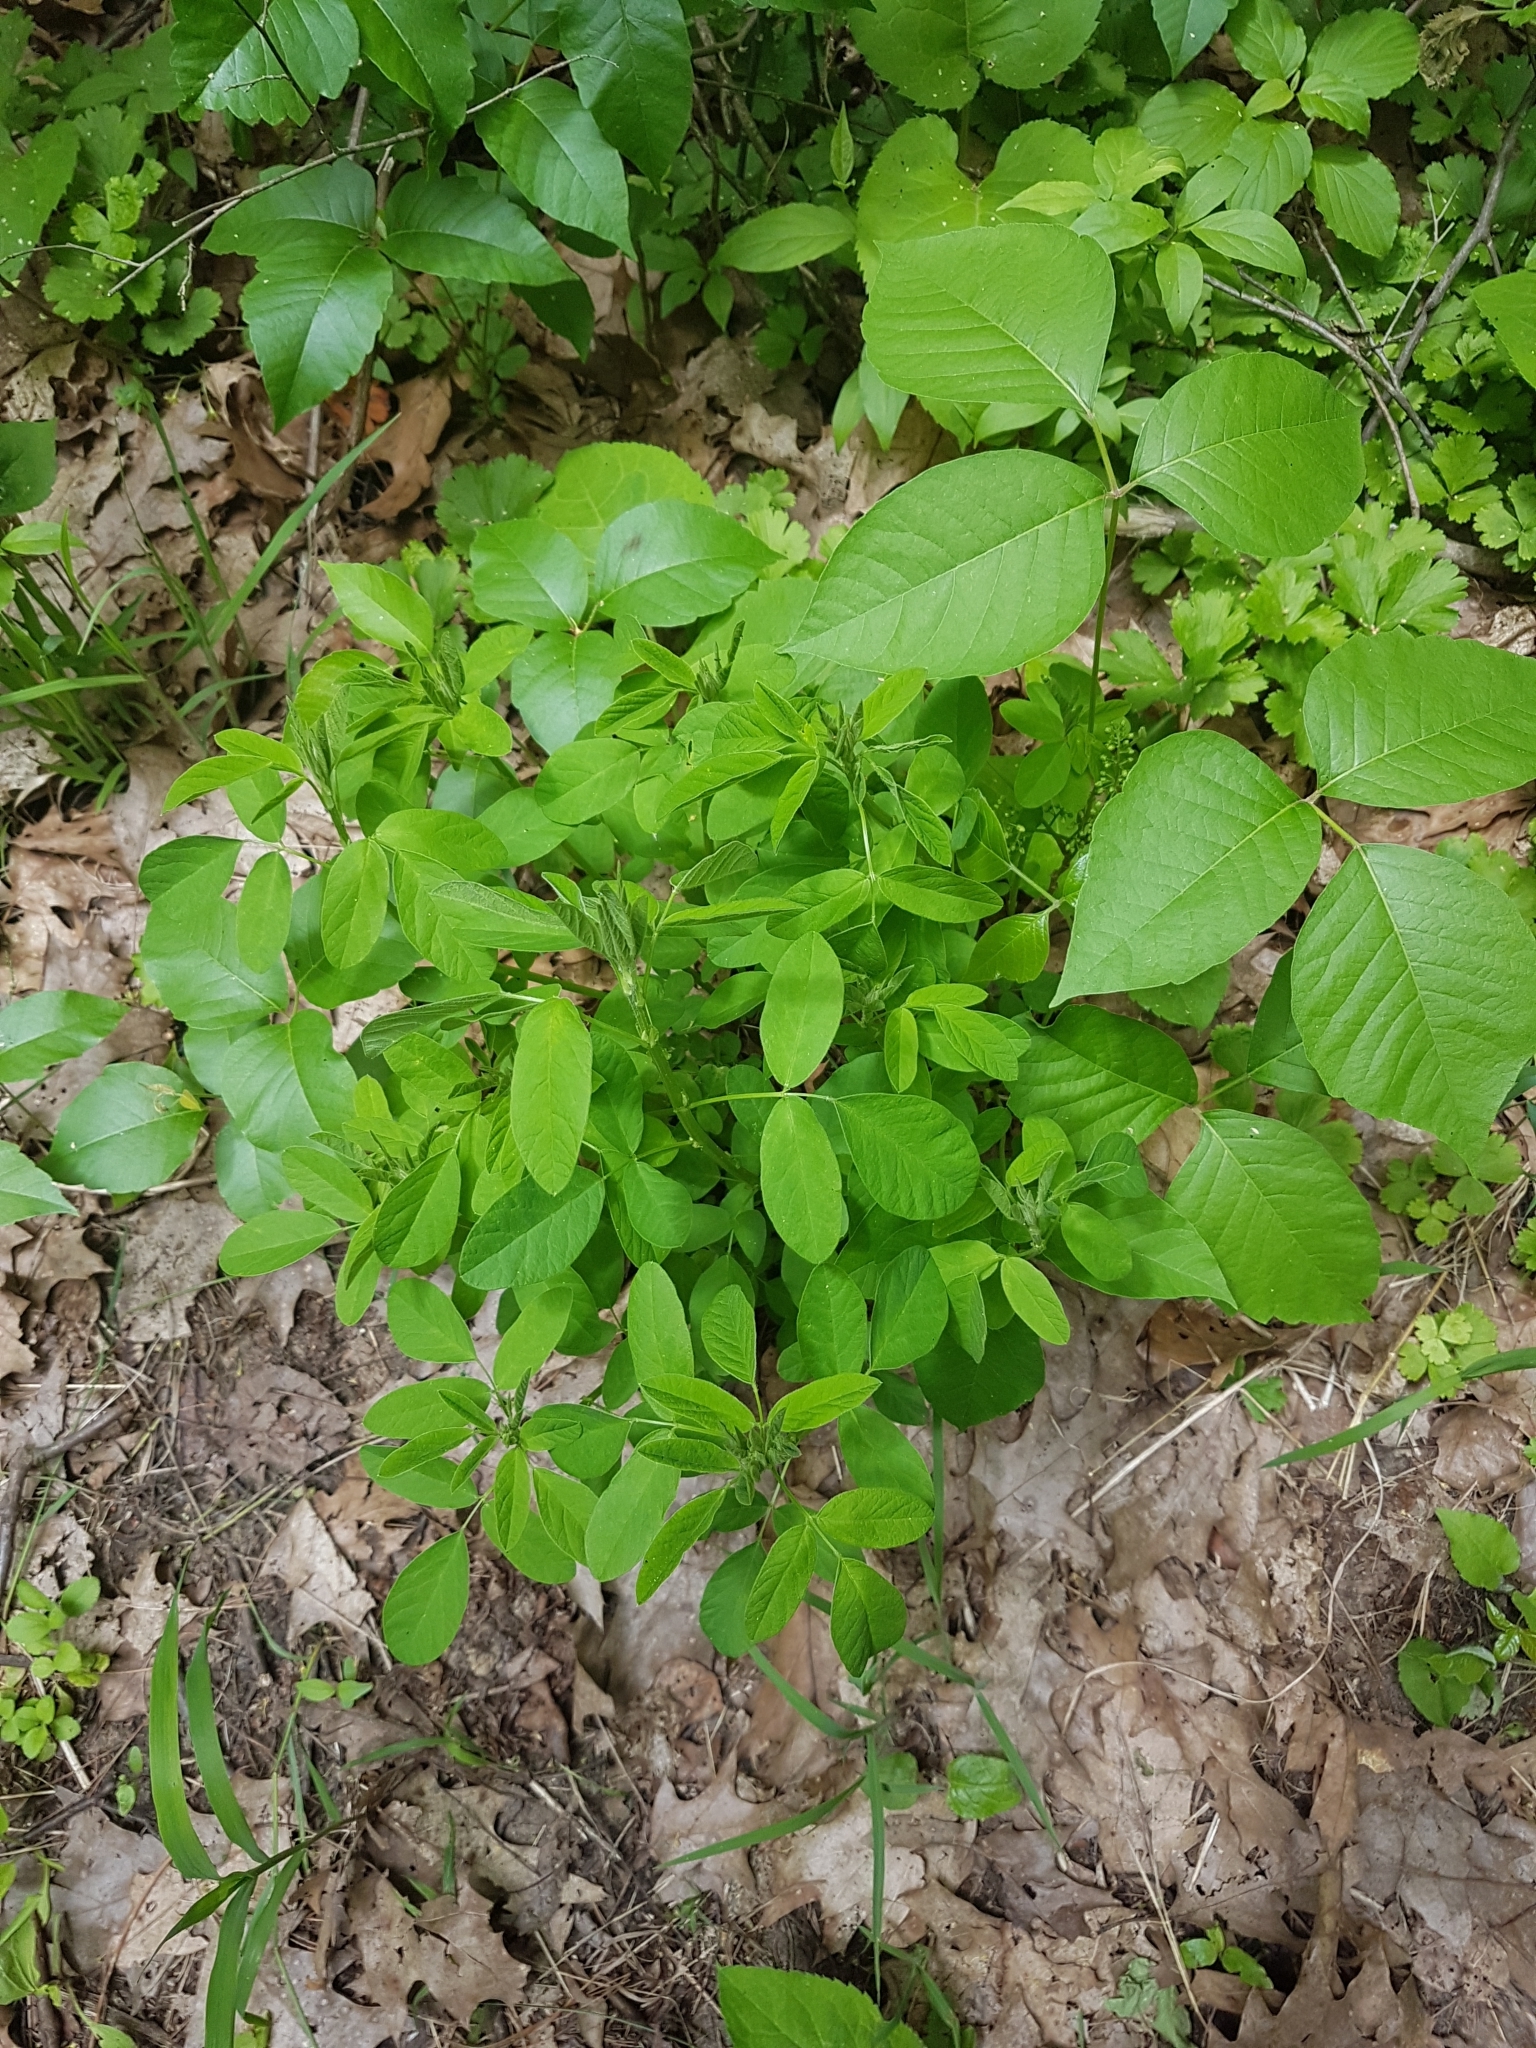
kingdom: Plantae
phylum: Tracheophyta
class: Magnoliopsida
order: Sapindales
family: Anacardiaceae
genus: Toxicodendron
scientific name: Toxicodendron rydbergii
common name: Rydberg's poison-ivy
